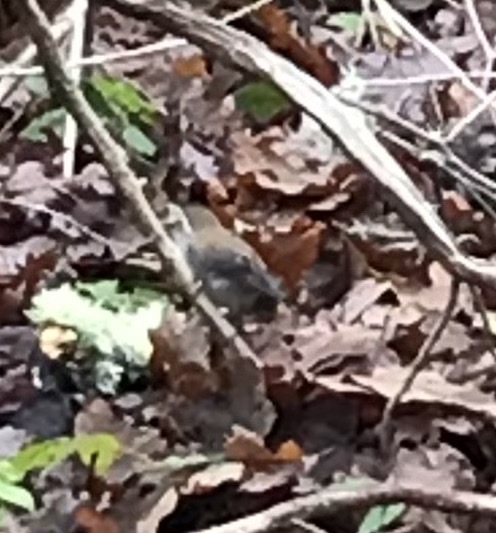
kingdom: Animalia
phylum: Chordata
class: Aves
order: Passeriformes
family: Troglodytidae
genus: Thryomanes
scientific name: Thryomanes bewickii
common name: Bewick's wren
